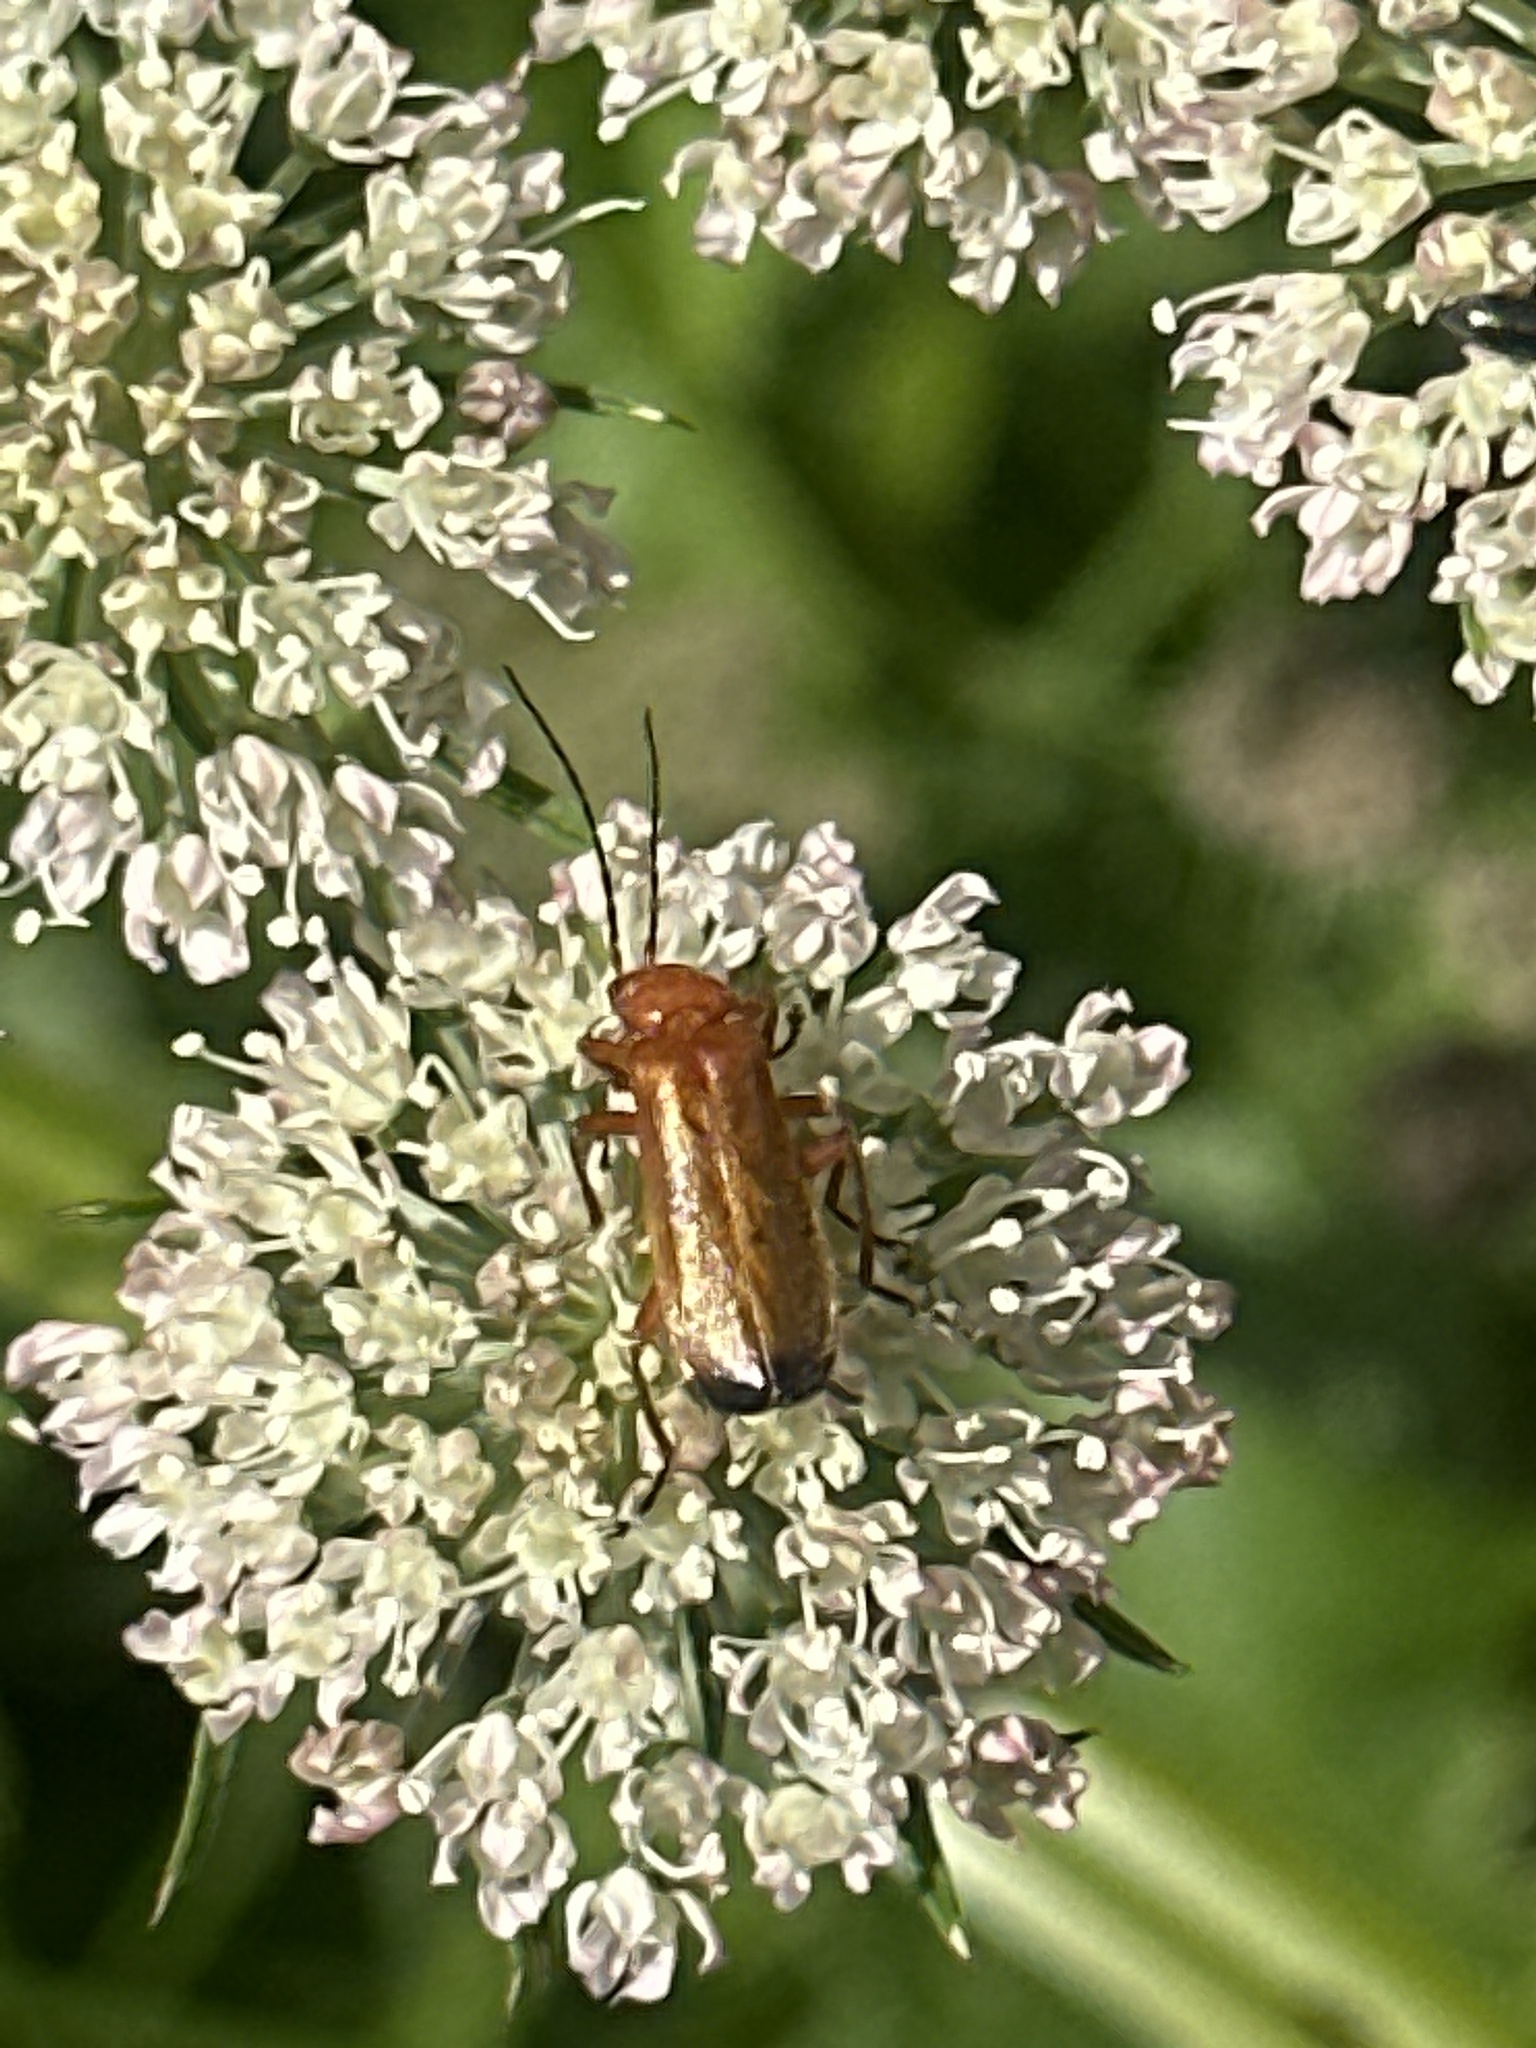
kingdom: Animalia
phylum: Arthropoda
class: Insecta
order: Coleoptera
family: Cantharidae
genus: Rhagonycha
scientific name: Rhagonycha fulva
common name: Common red soldier beetle
